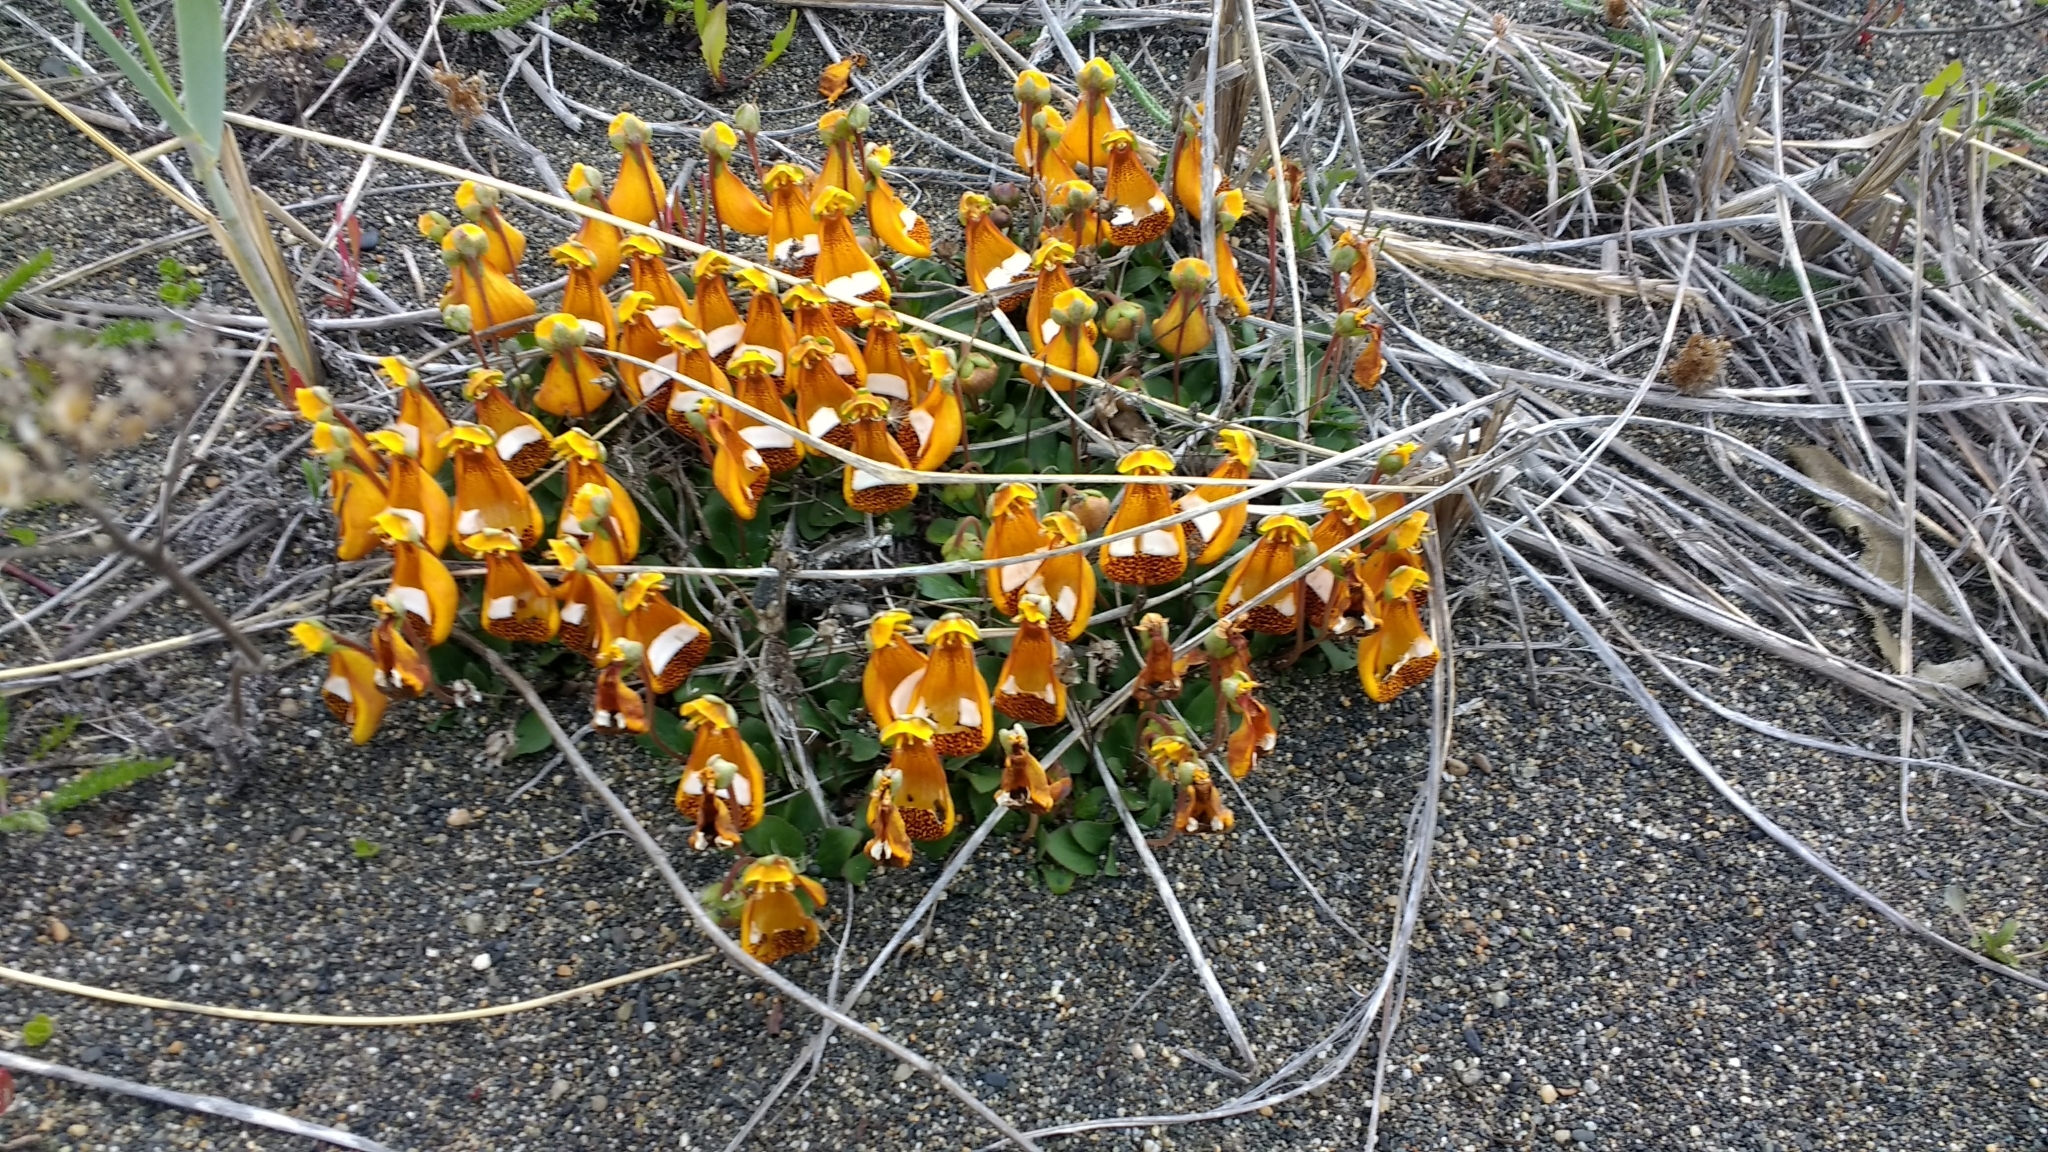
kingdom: Plantae
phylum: Tracheophyta
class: Magnoliopsida
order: Lamiales
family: Calceolariaceae
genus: Calceolaria
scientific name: Calceolaria uniflora
